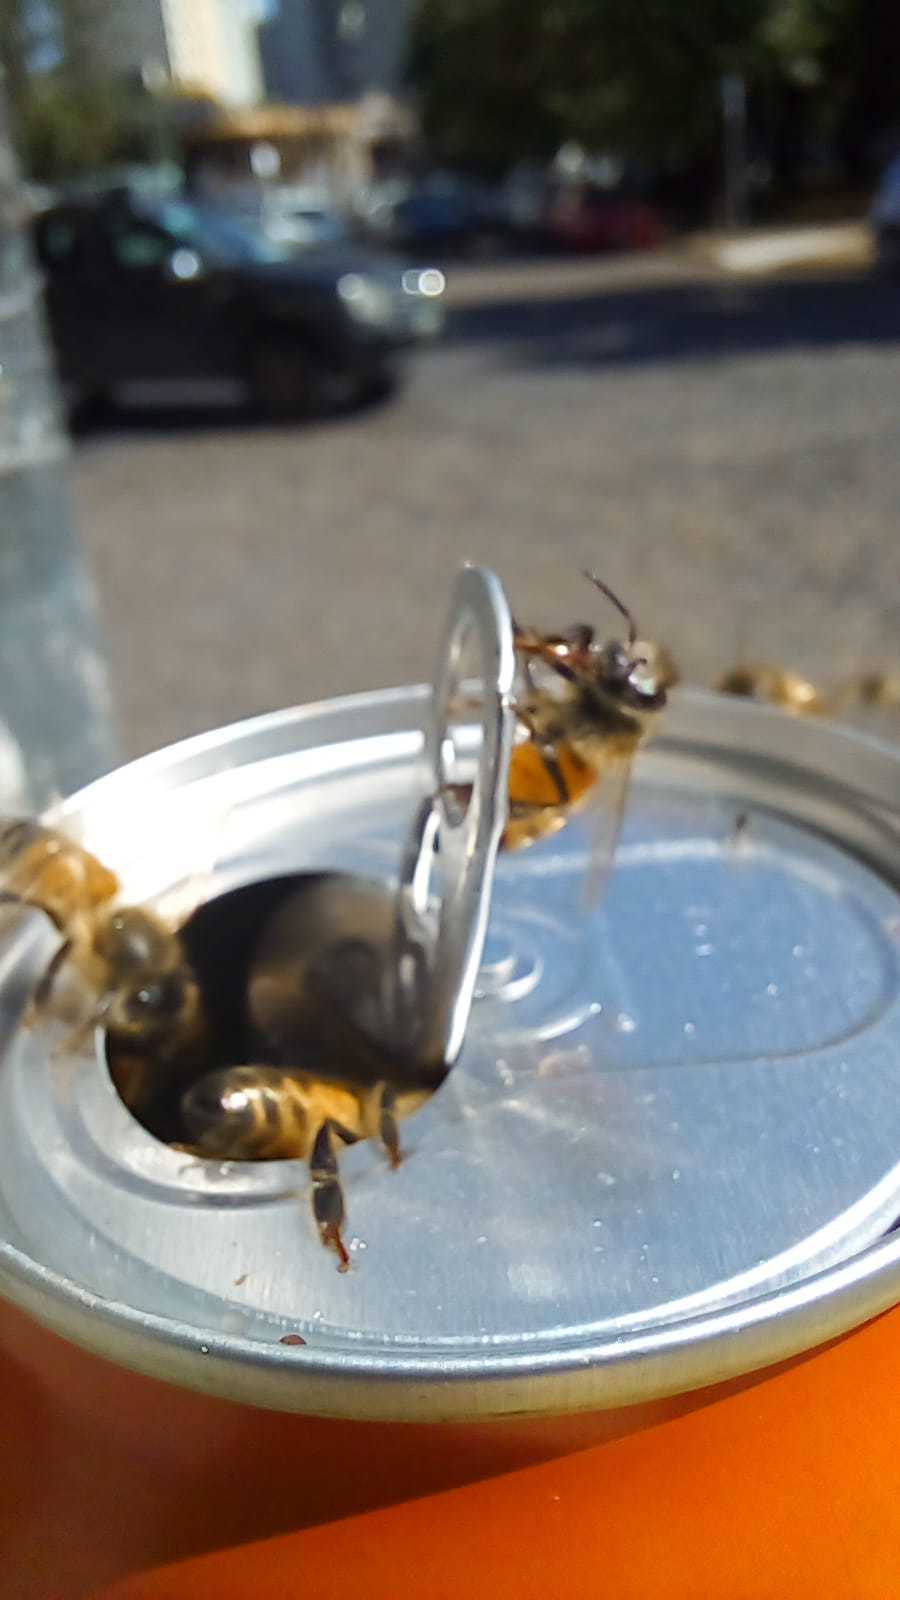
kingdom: Animalia
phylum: Arthropoda
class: Insecta
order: Hymenoptera
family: Apidae
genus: Apis
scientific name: Apis mellifera
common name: Honey bee
